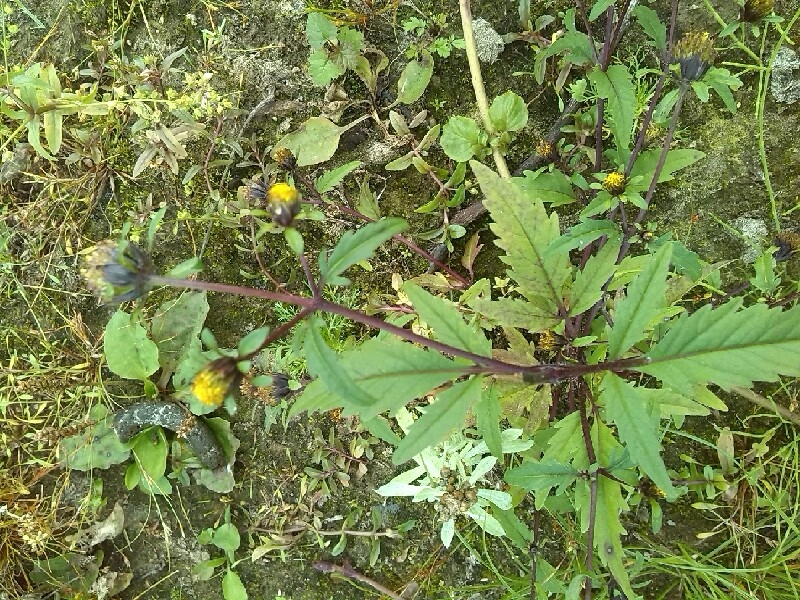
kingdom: Plantae
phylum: Tracheophyta
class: Magnoliopsida
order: Asterales
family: Asteraceae
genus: Bidens
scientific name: Bidens tripartita
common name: Trifid bur-marigold
